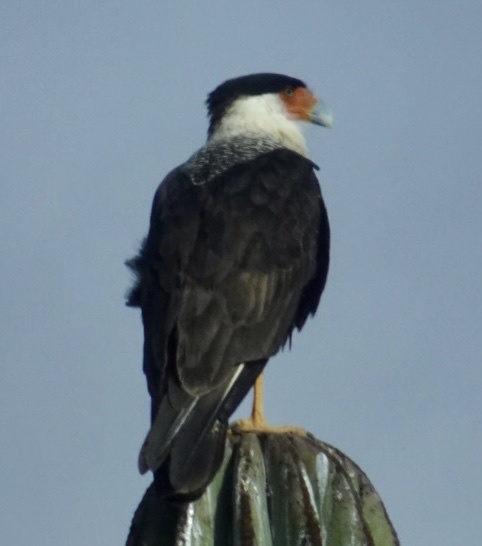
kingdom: Animalia
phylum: Chordata
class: Aves
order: Falconiformes
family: Falconidae
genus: Caracara
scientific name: Caracara plancus
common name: Southern caracara
